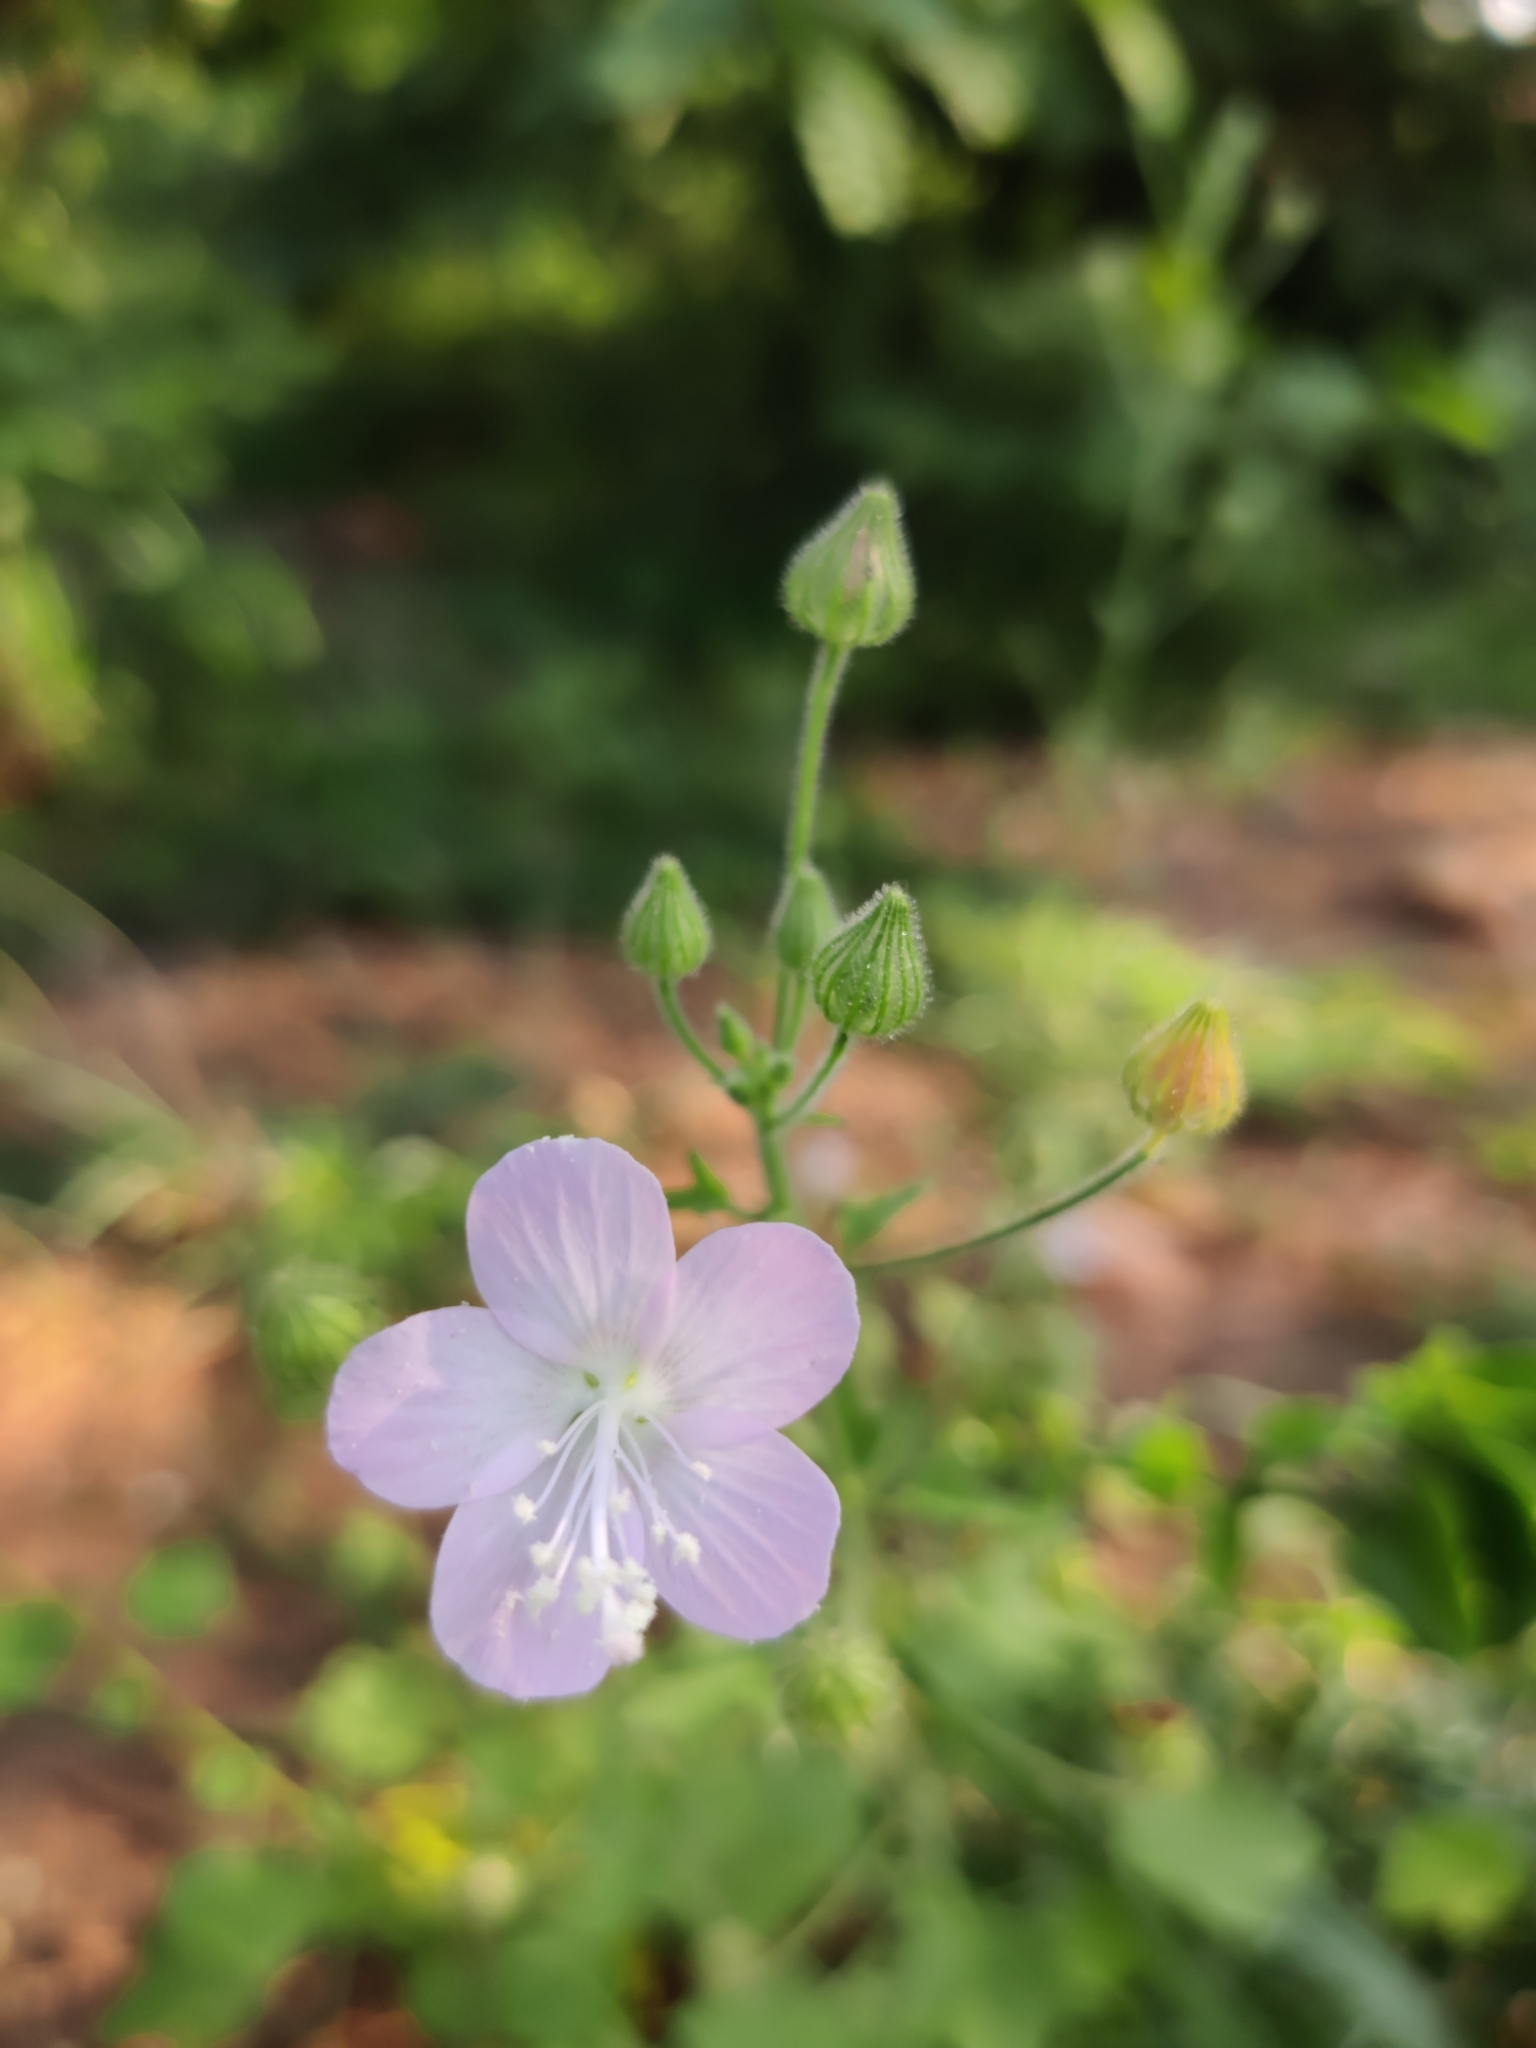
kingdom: Plantae
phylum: Tracheophyta
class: Magnoliopsida
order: Malvales
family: Malvaceae
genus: Pavonia
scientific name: Pavonia zeylanica
